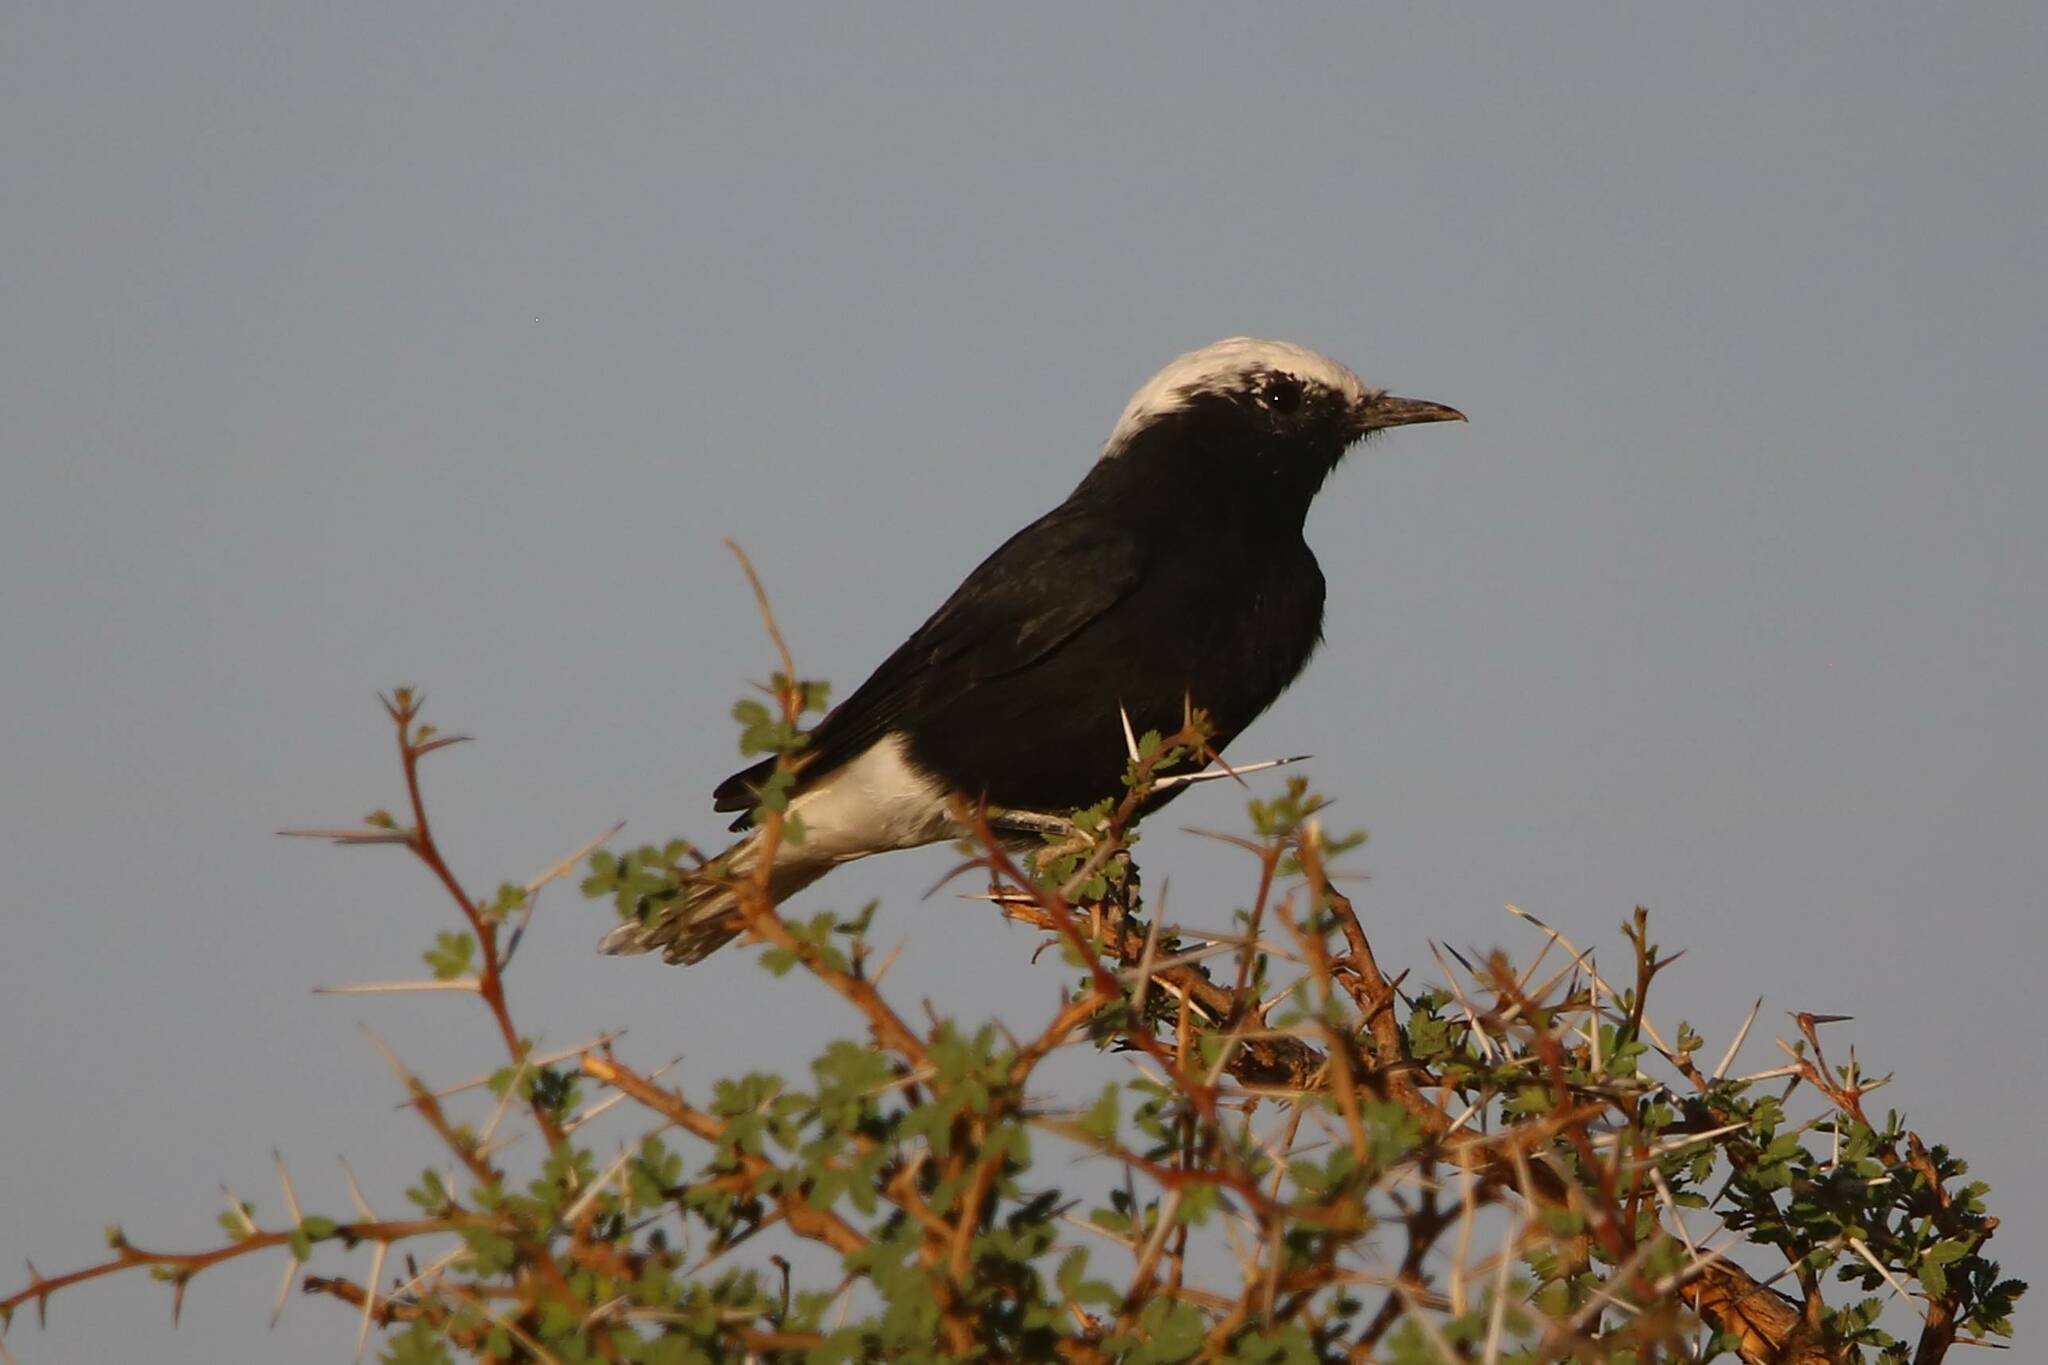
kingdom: Animalia
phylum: Chordata
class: Aves
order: Passeriformes
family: Muscicapidae
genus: Oenanthe
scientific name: Oenanthe leucopyga
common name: White-crowned wheatear
